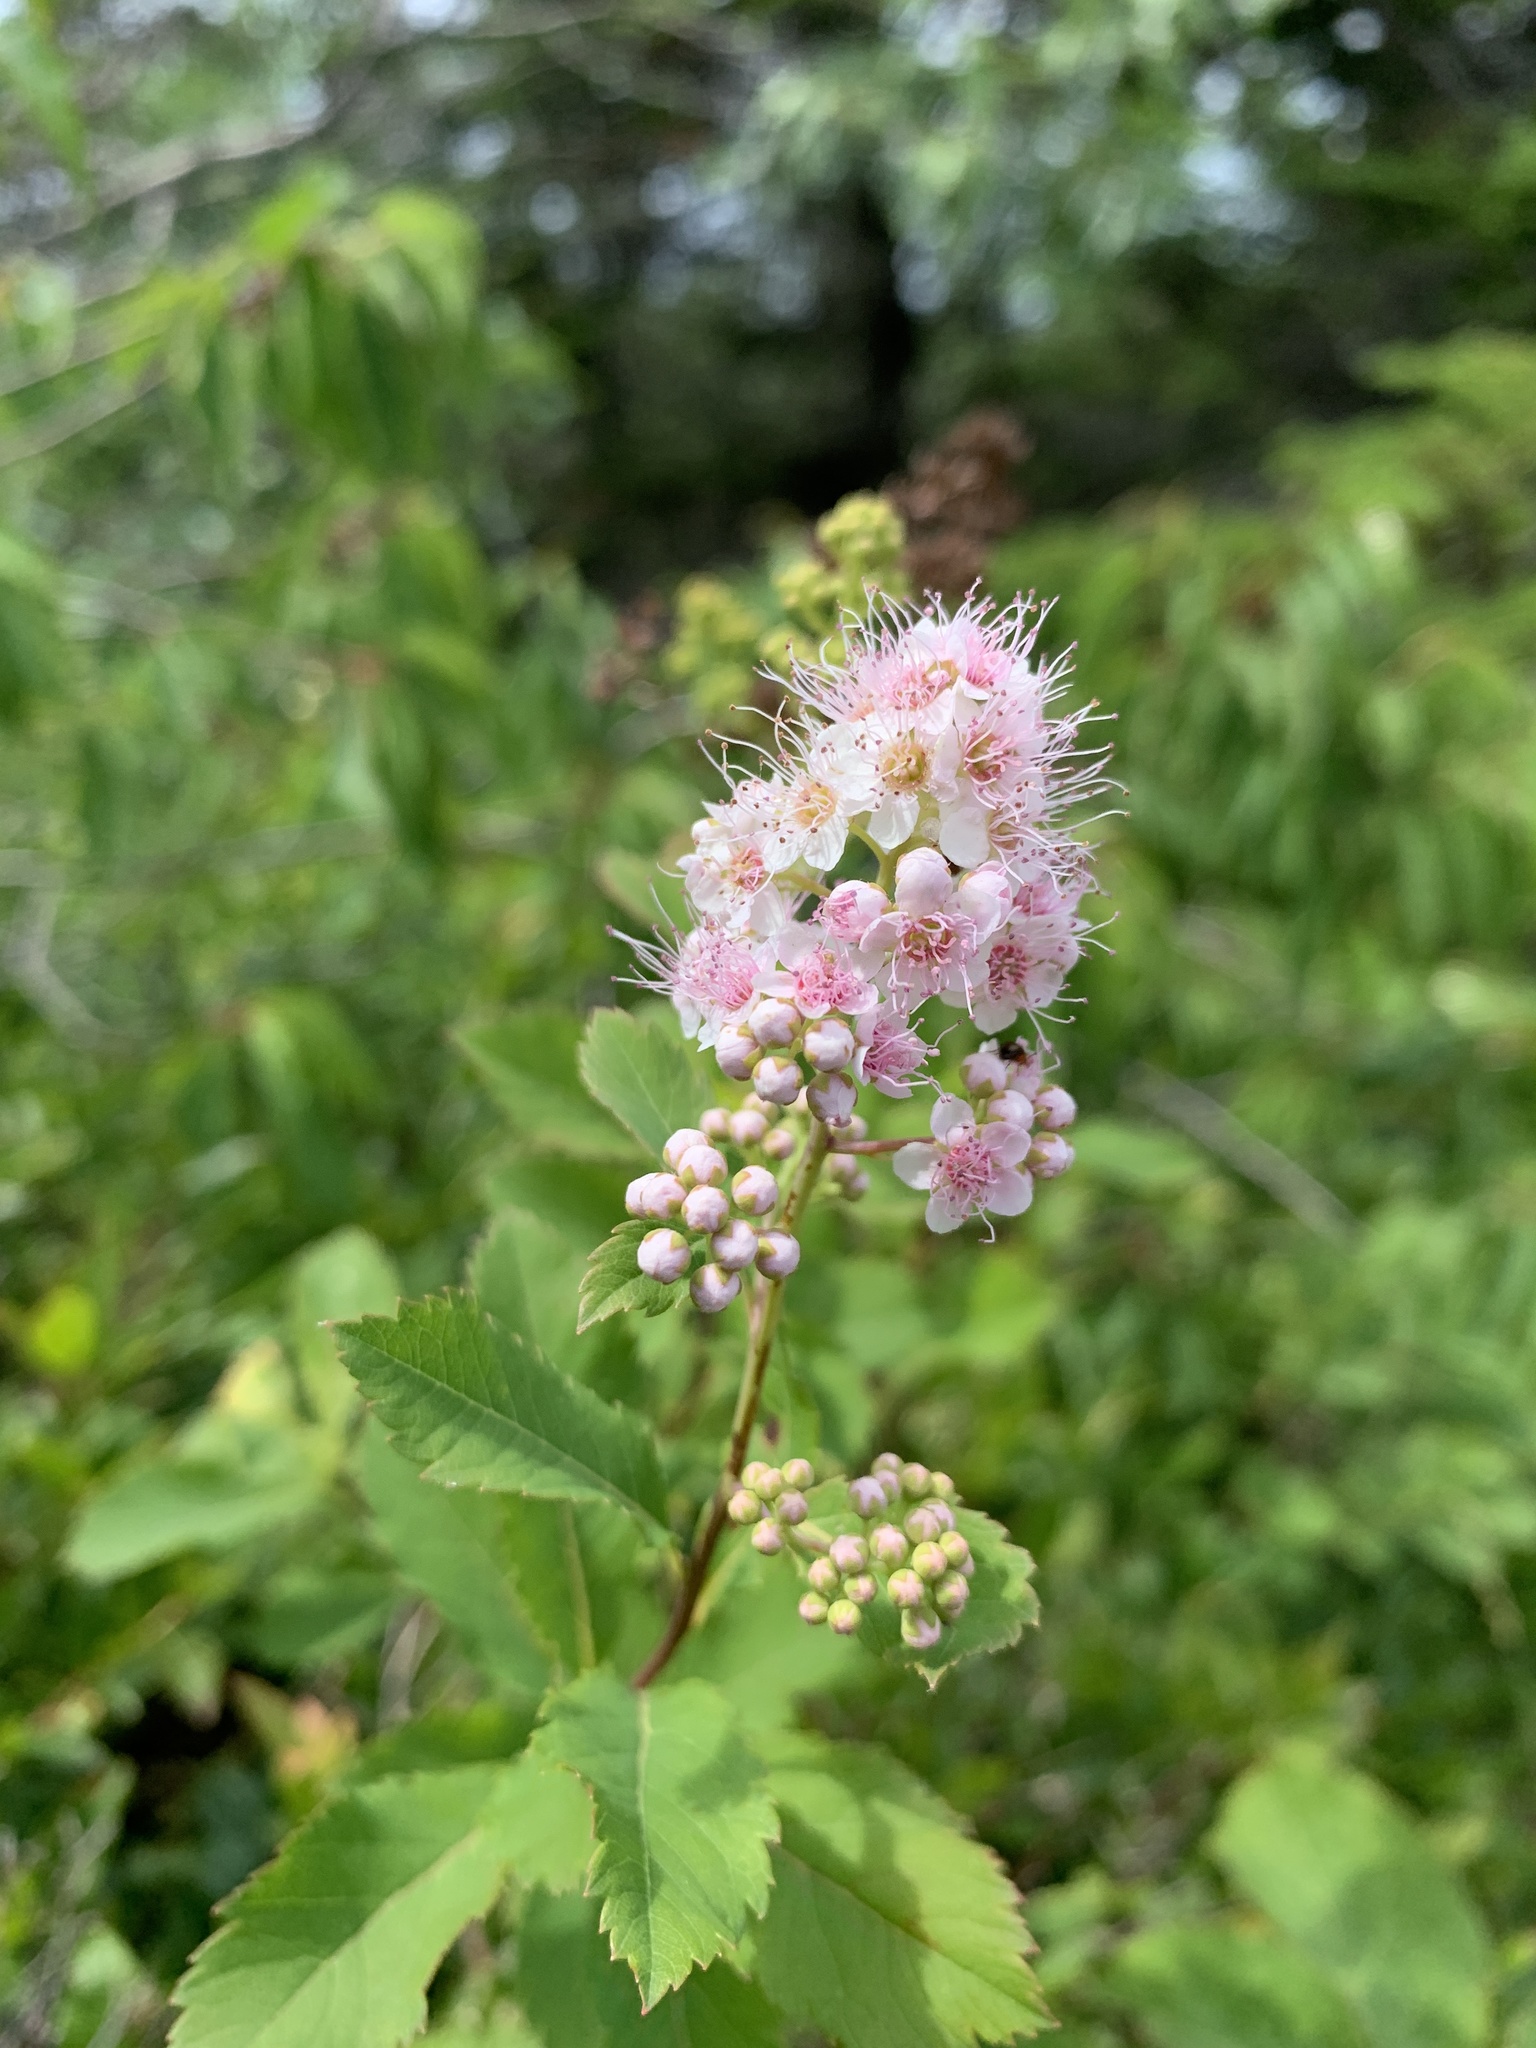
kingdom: Plantae
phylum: Tracheophyta
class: Magnoliopsida
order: Rosales
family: Rosaceae
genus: Spiraea
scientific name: Spiraea alba
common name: Pale bridewort
